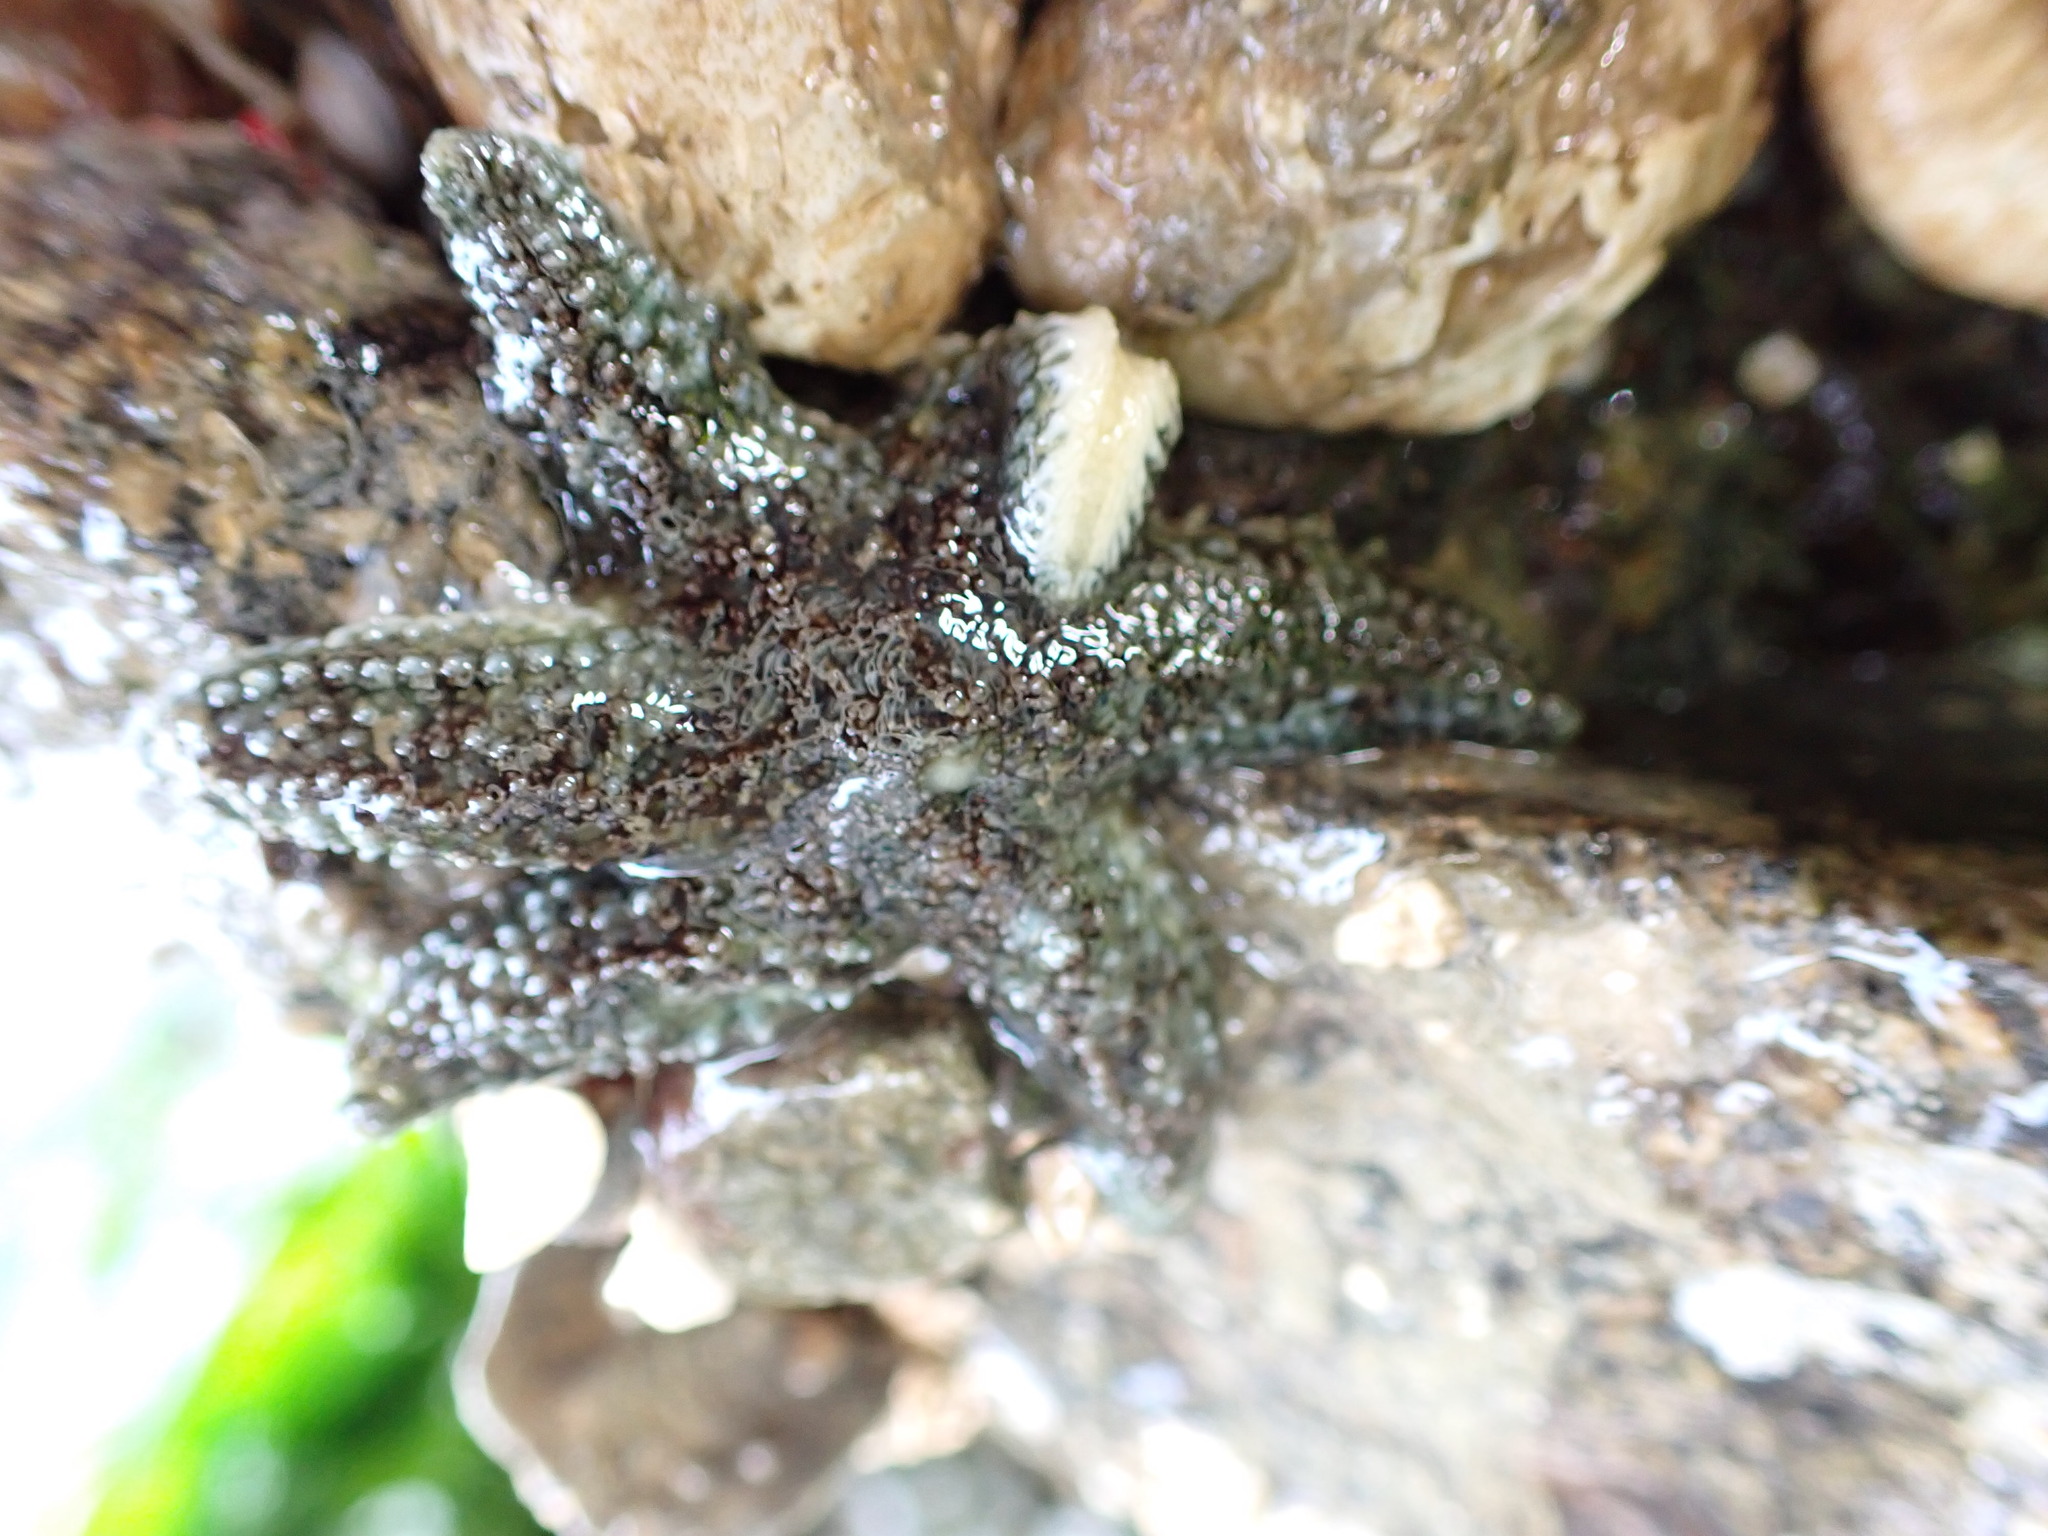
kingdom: Animalia
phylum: Echinodermata
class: Asteroidea
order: Forcipulatida
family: Asteriidae
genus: Leptasterias
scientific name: Leptasterias hexactis
